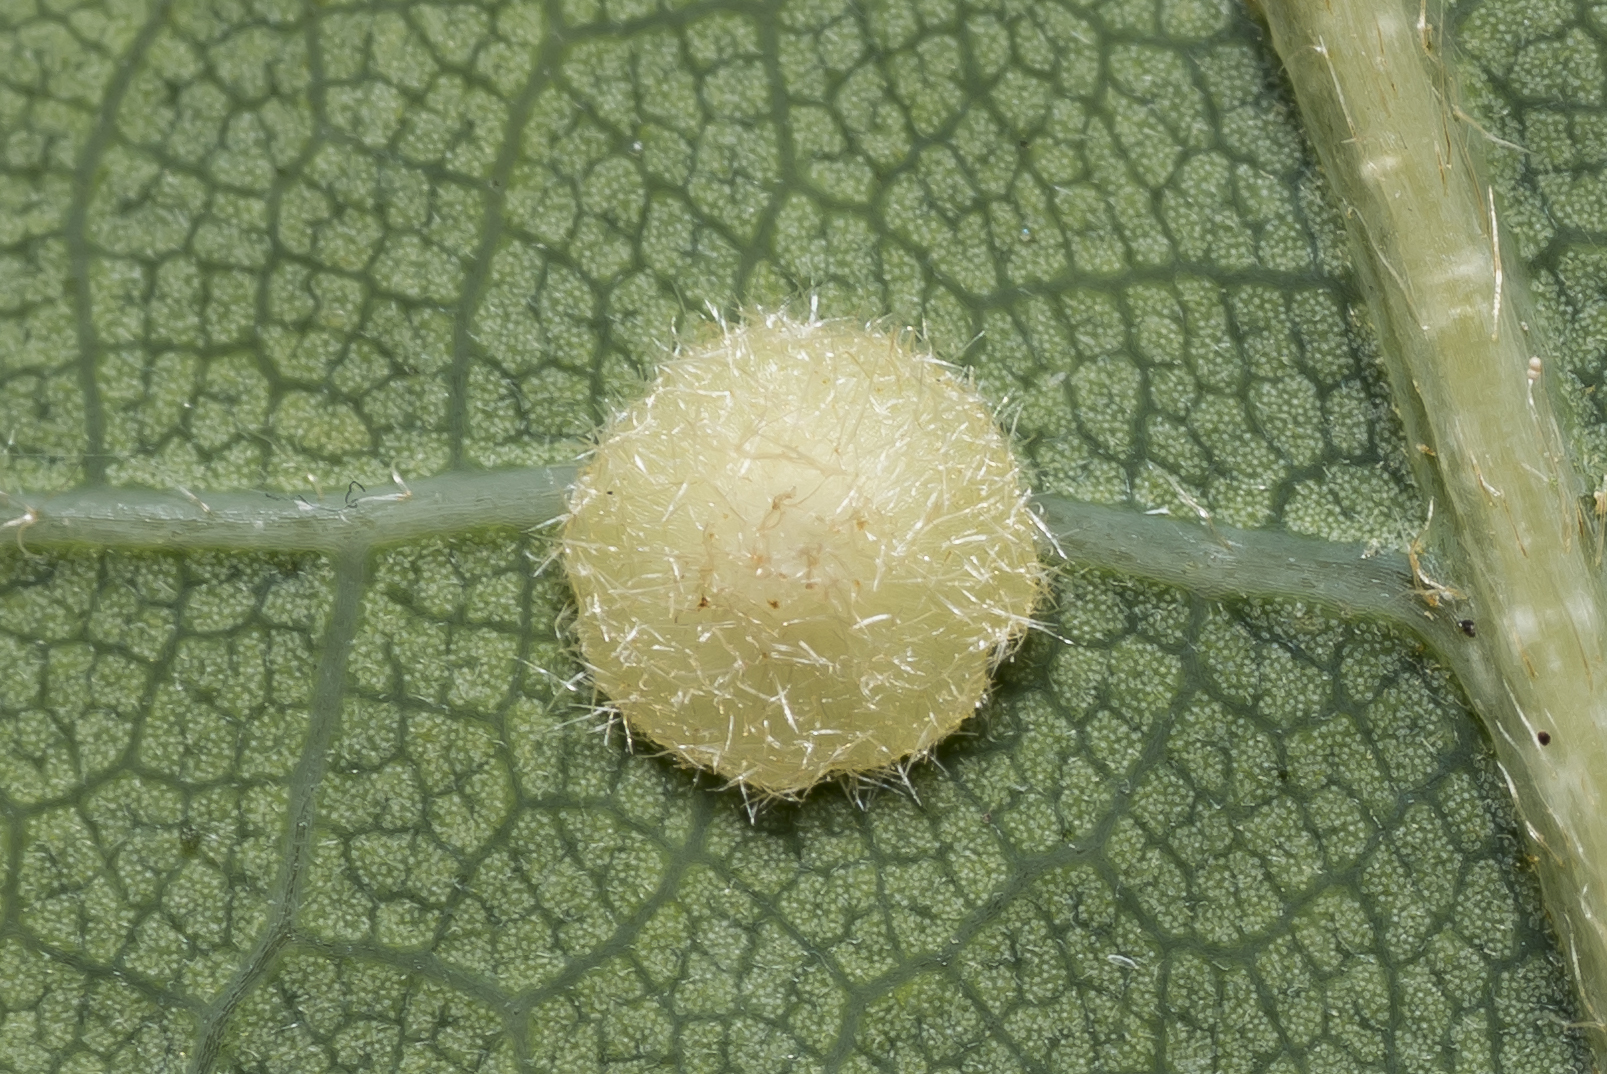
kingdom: Animalia
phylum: Arthropoda
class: Insecta
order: Hymenoptera
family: Cynipidae
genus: Neuroterus
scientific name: Neuroterus quercusbaccarum
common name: Common spangle gall
